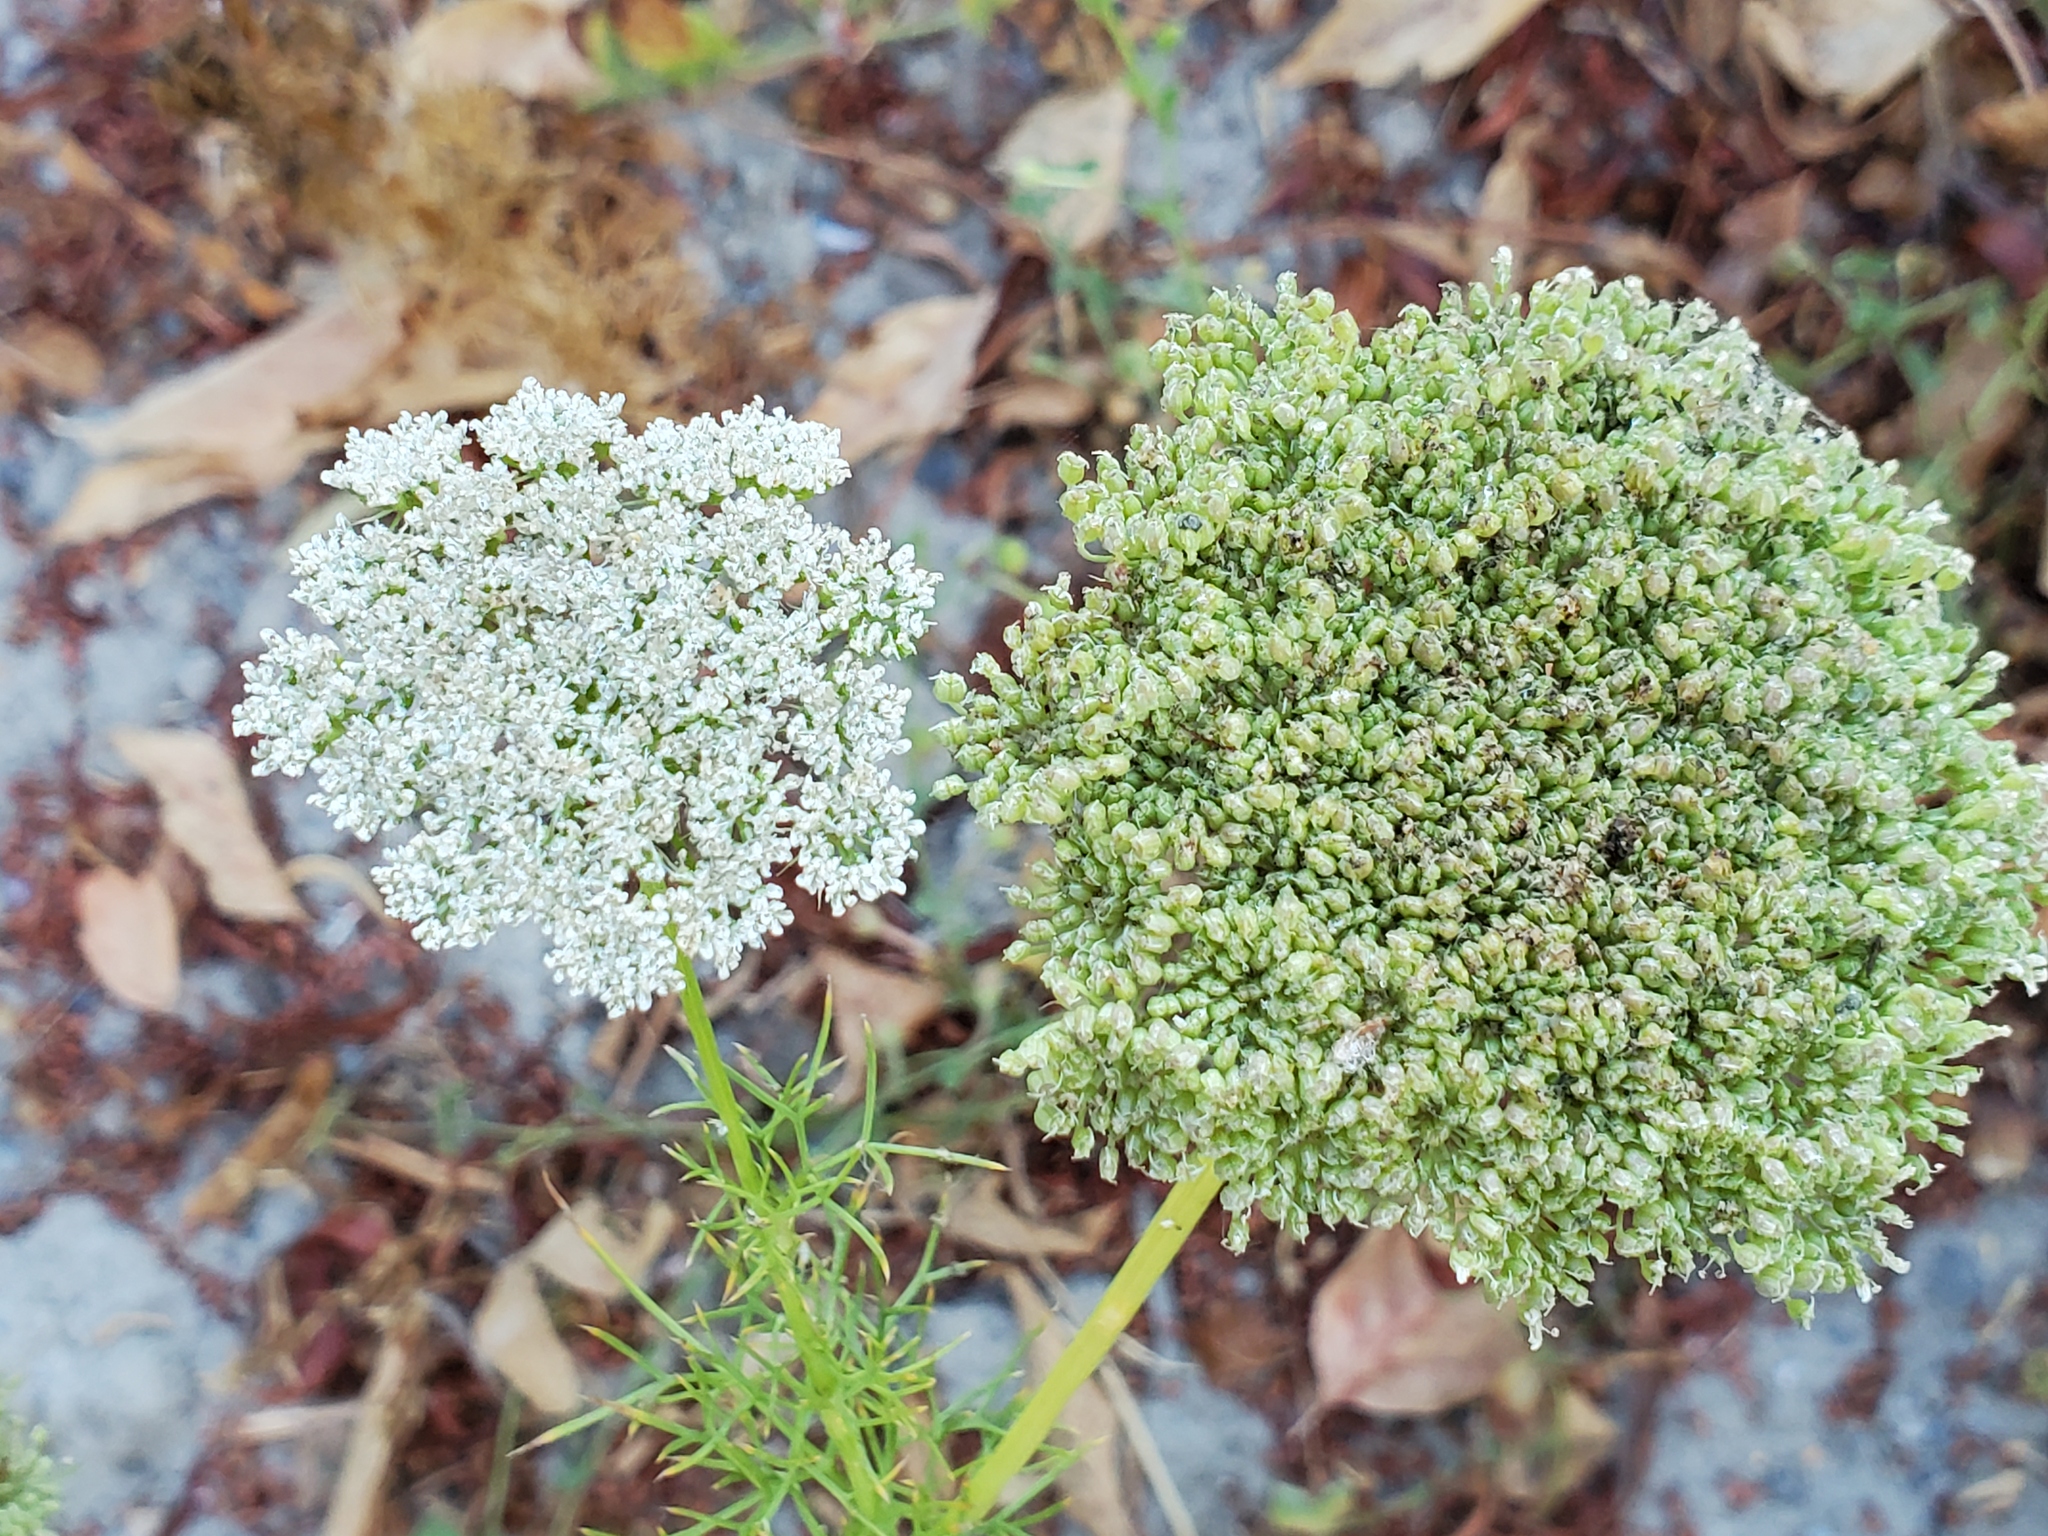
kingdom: Plantae
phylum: Tracheophyta
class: Magnoliopsida
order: Apiales
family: Apiaceae
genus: Visnaga
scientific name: Visnaga daucoides
